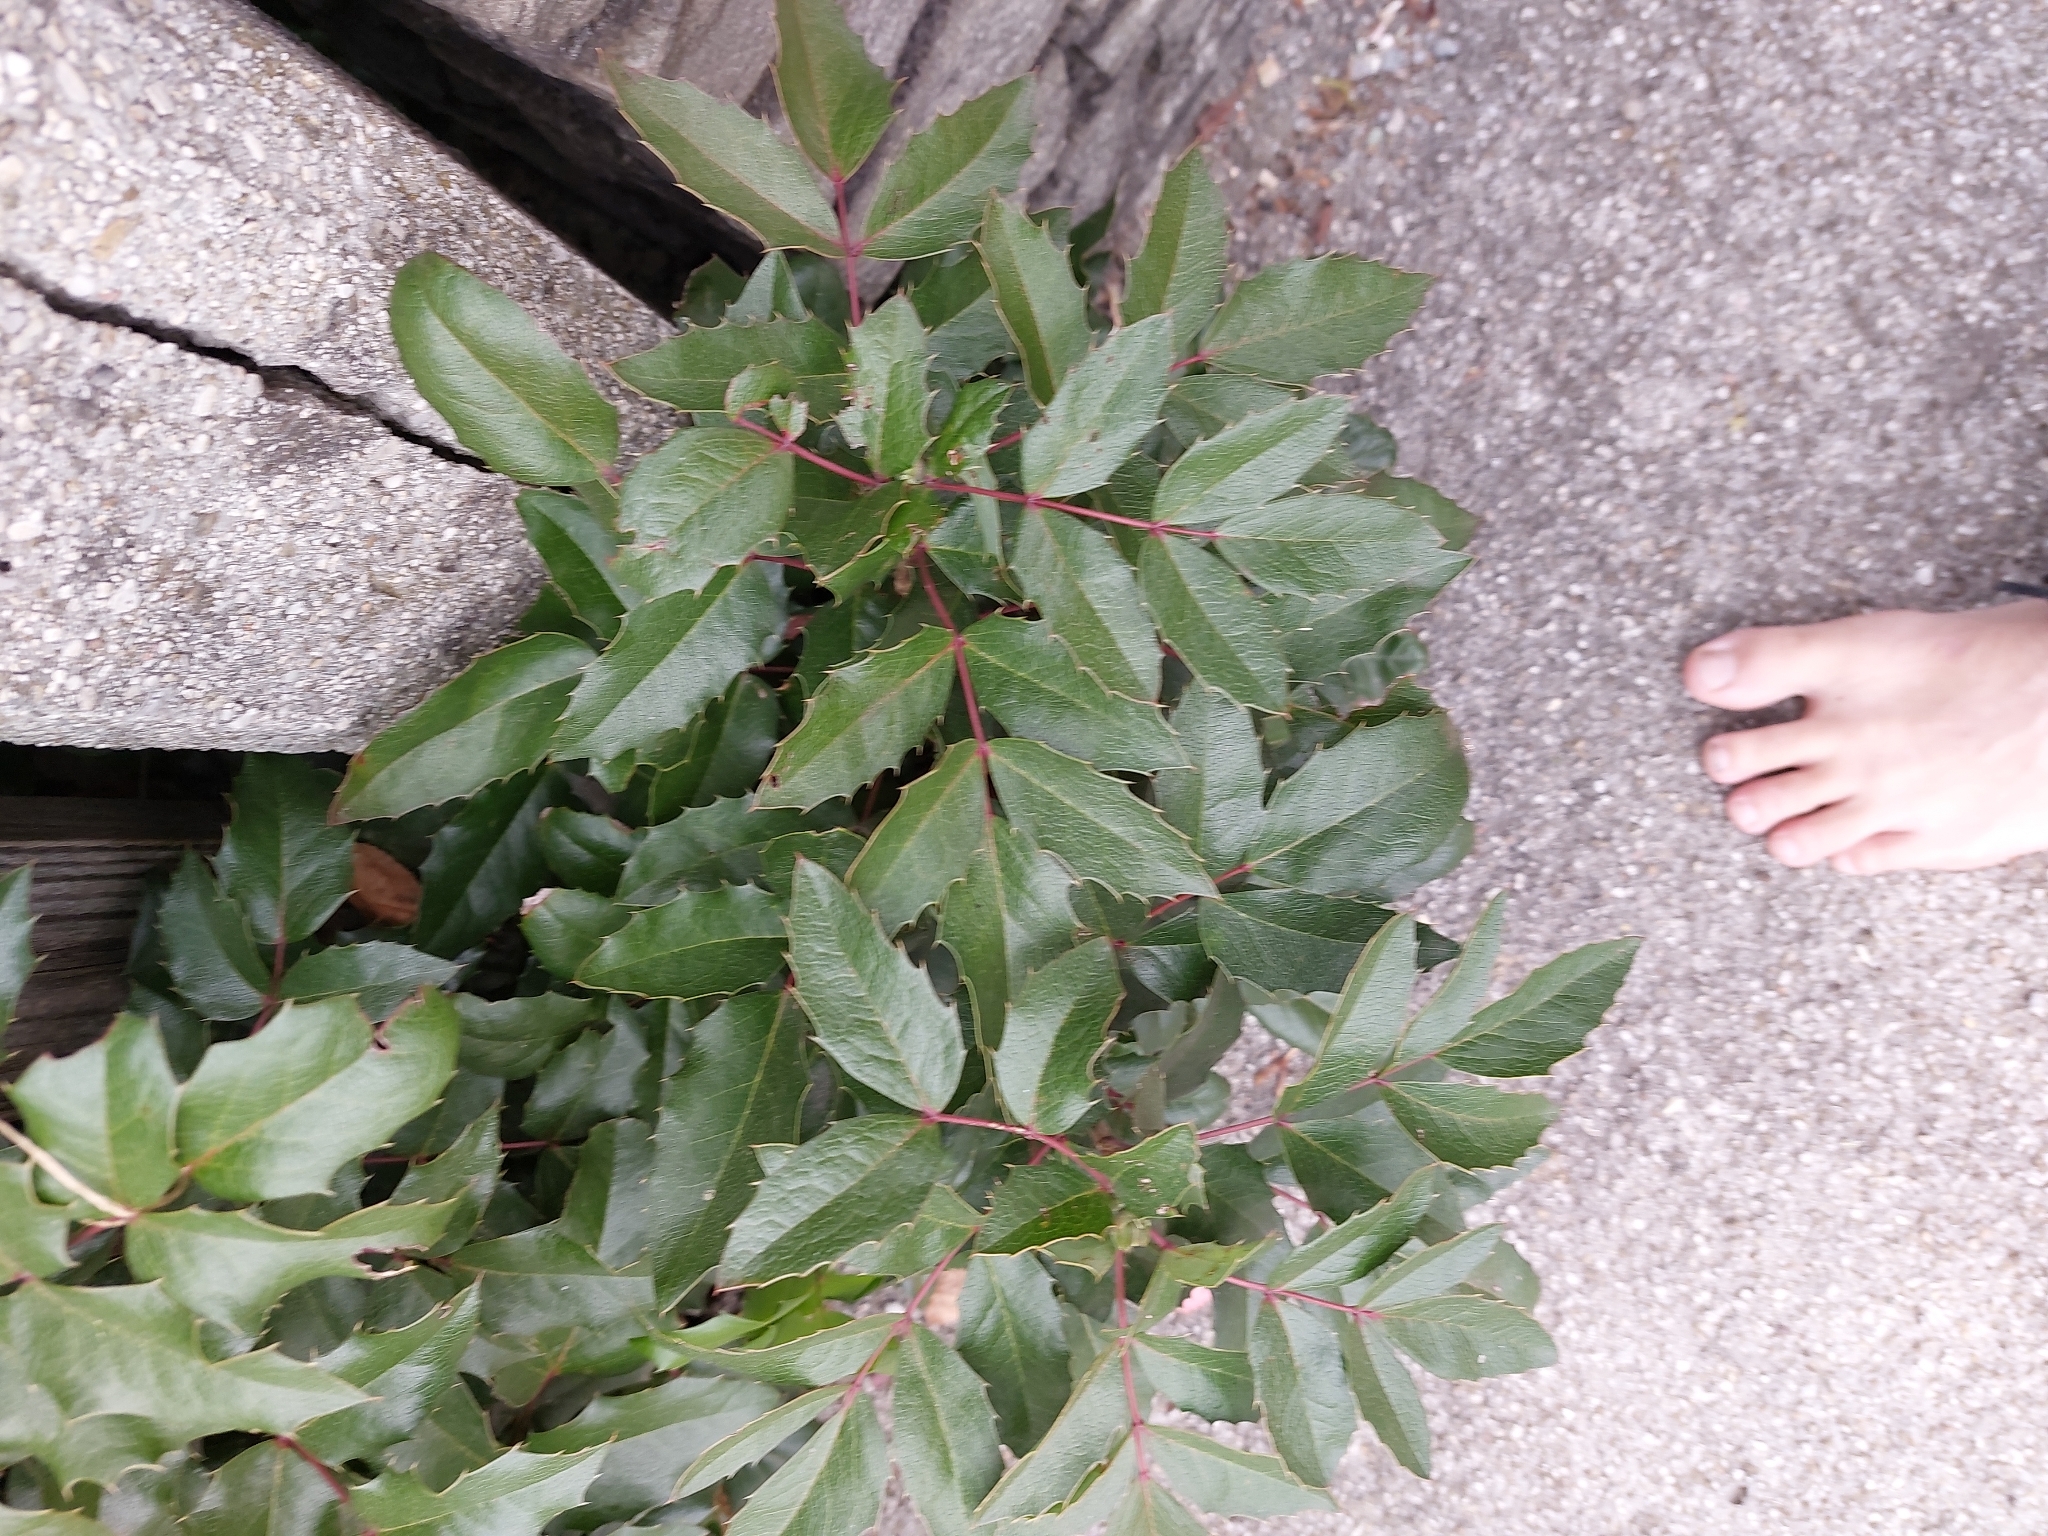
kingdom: Plantae
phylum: Tracheophyta
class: Magnoliopsida
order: Ranunculales
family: Berberidaceae
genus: Mahonia
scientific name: Mahonia aquifolium
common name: Oregon-grape
